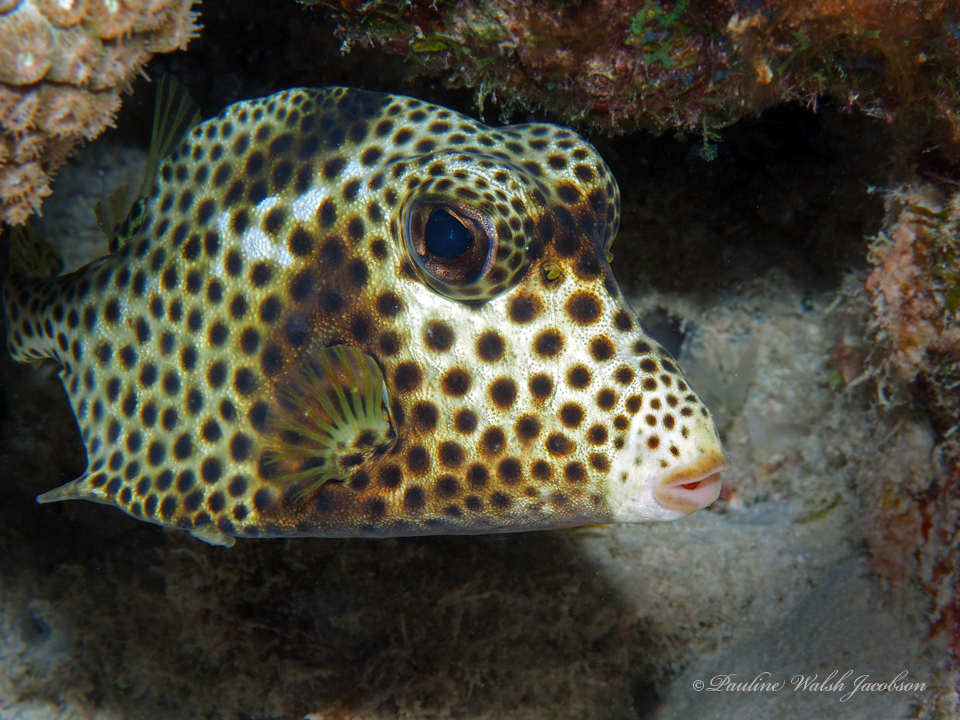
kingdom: Animalia
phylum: Chordata
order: Tetraodontiformes
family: Ostraciidae
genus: Lactophrys
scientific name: Lactophrys bicaudalis
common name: Spotted trunkfish
